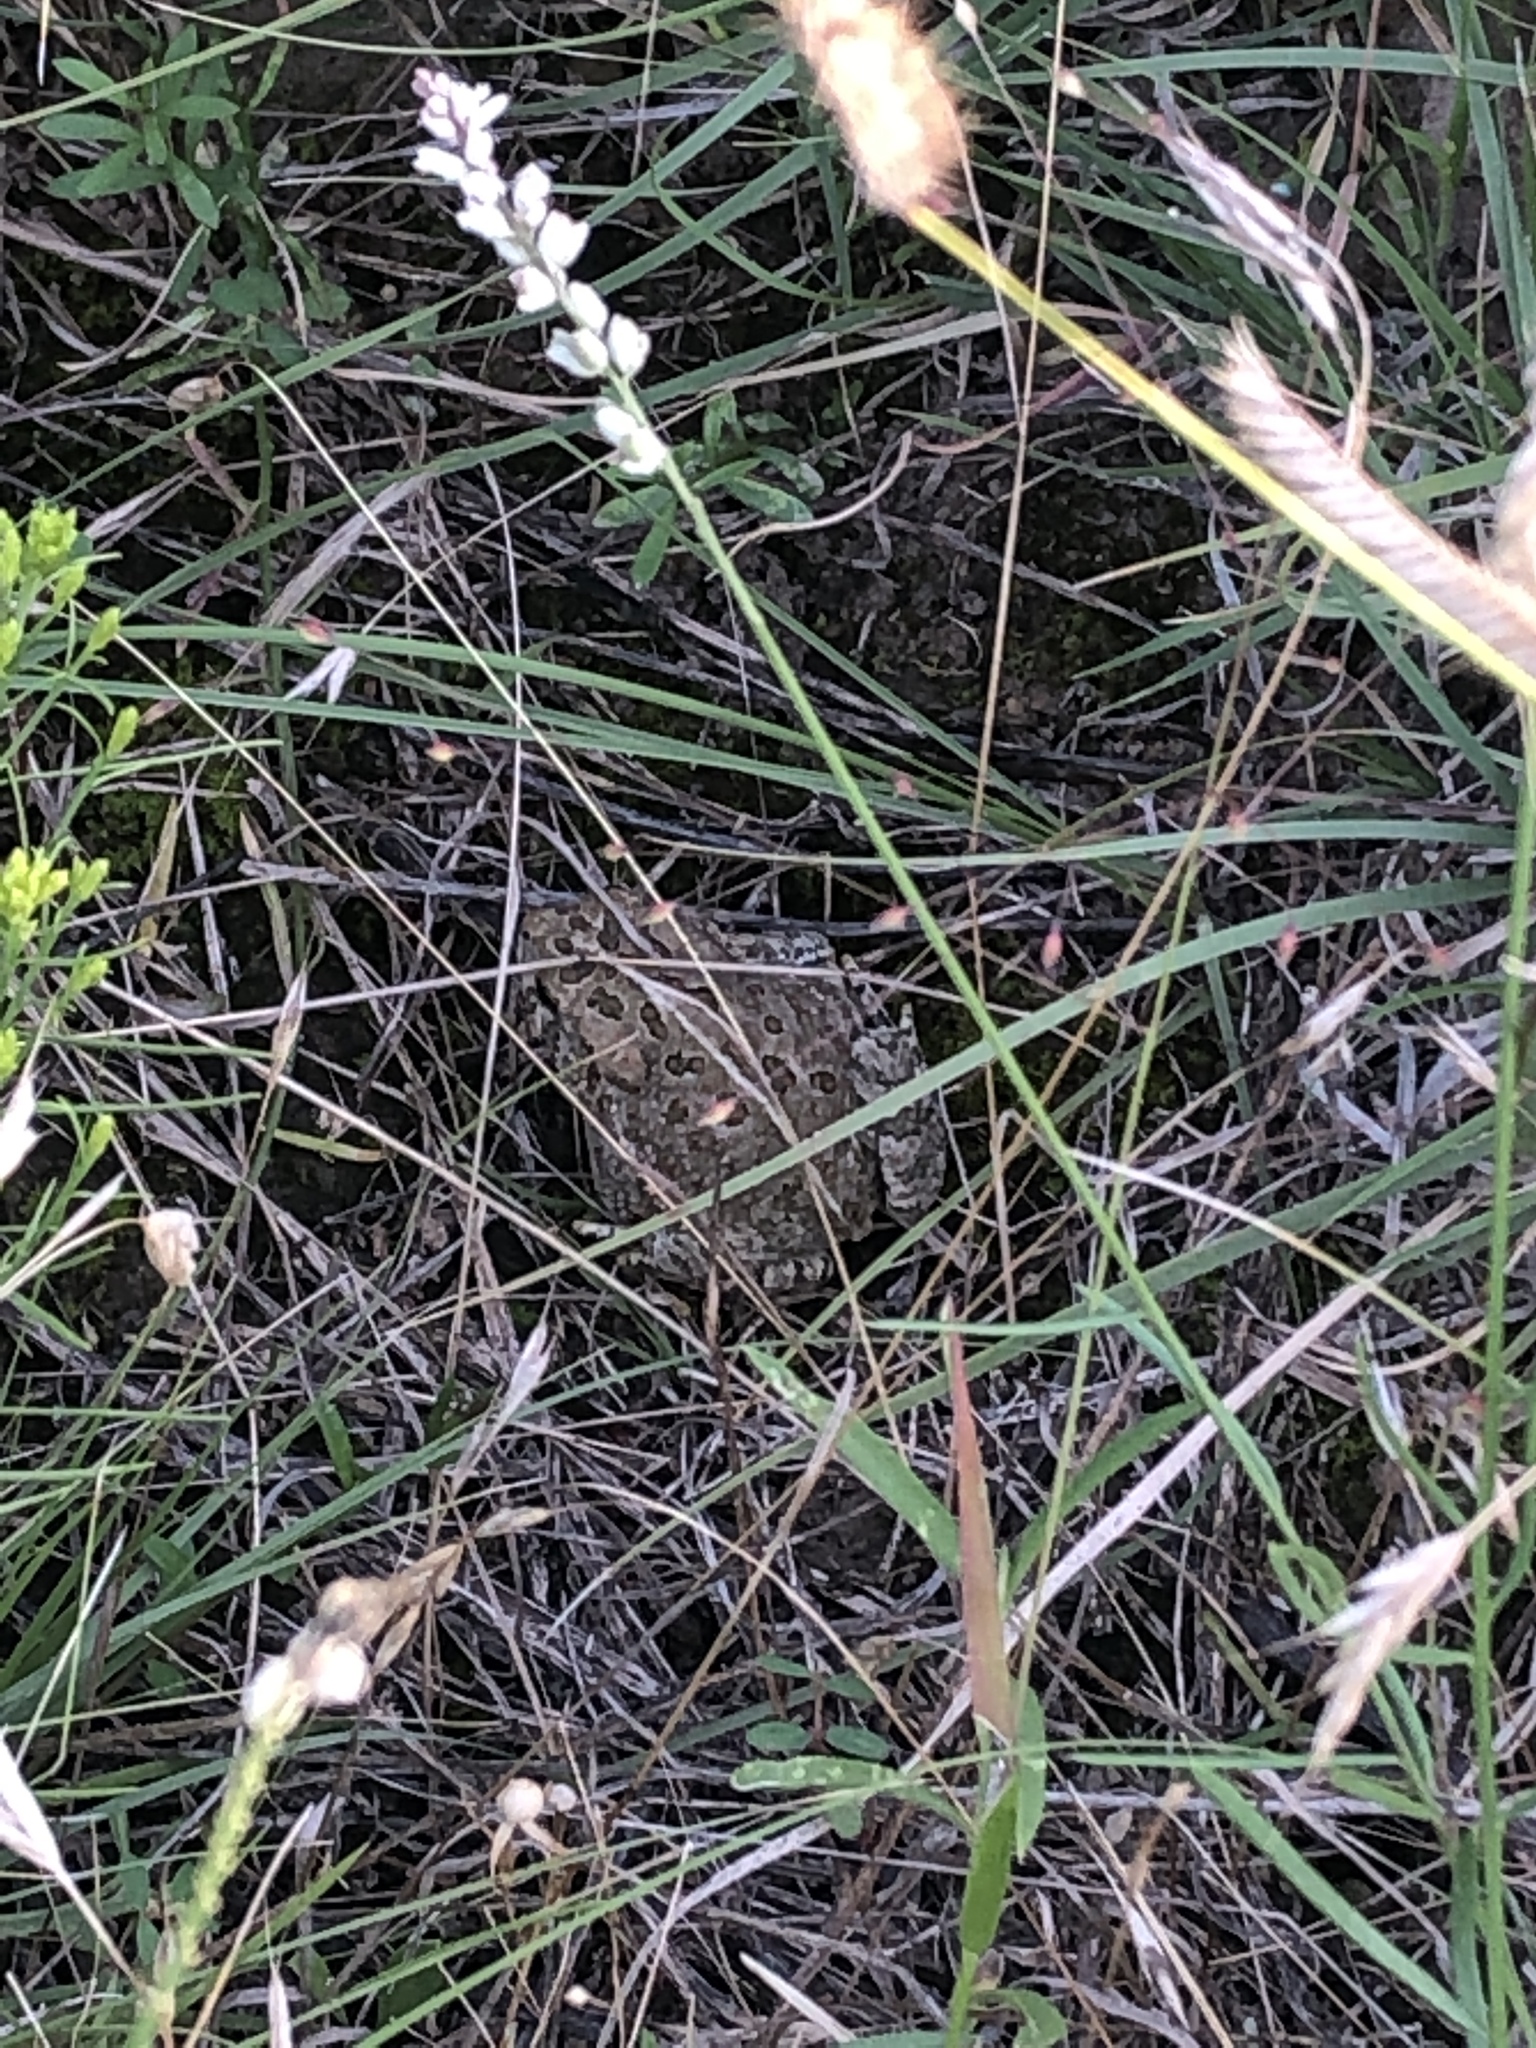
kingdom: Animalia
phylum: Chordata
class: Amphibia
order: Anura
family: Bufonidae
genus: Anaxyrus
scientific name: Anaxyrus woodhousii
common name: Woodhouse's toad
